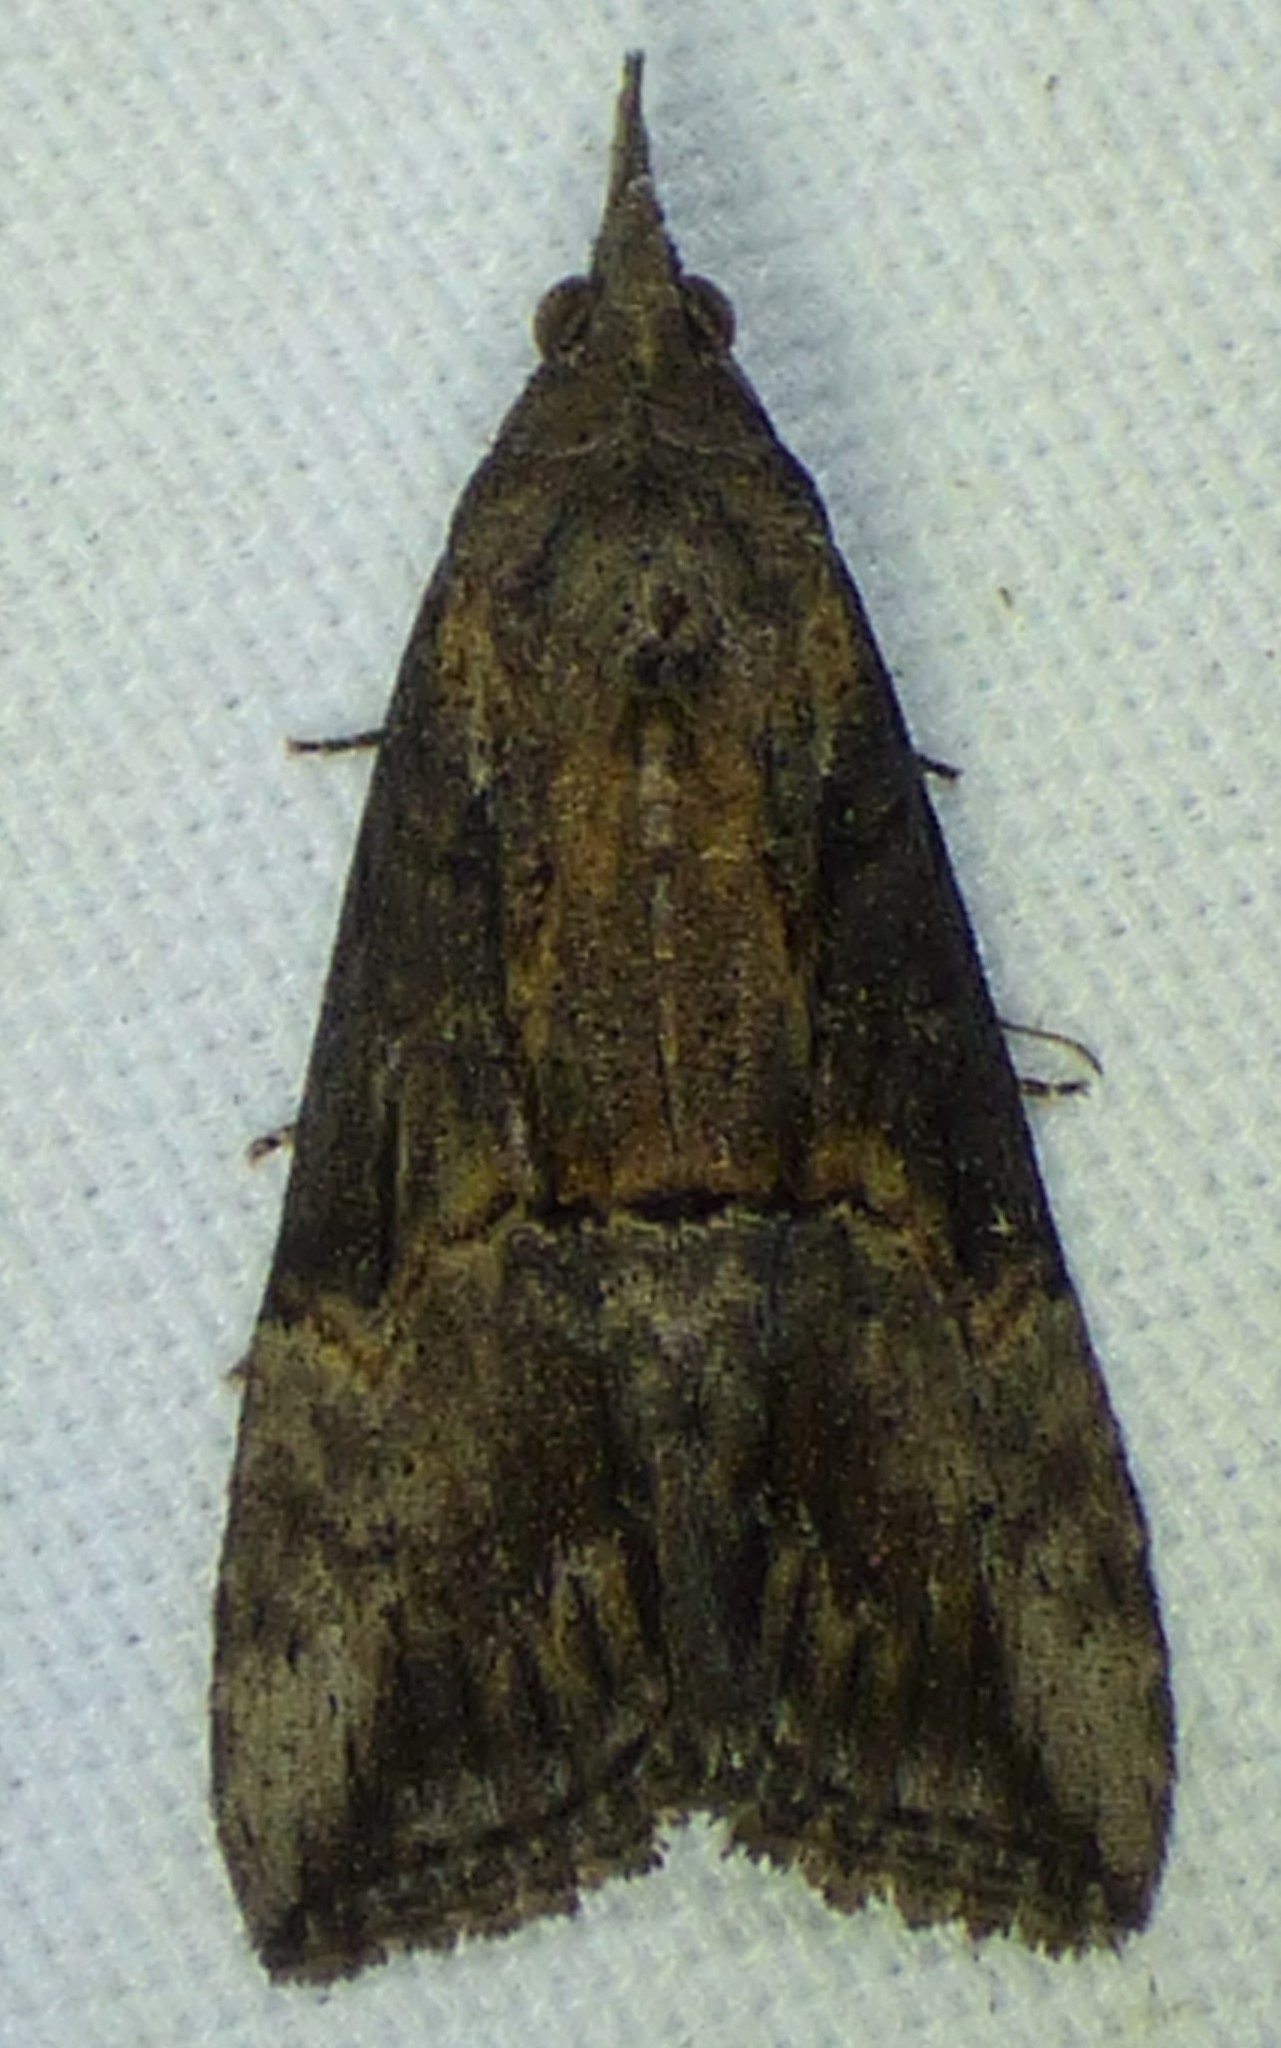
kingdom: Animalia
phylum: Arthropoda
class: Insecta
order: Lepidoptera
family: Erebidae
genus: Hypena
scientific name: Hypena scabra
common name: Green cloverworm
